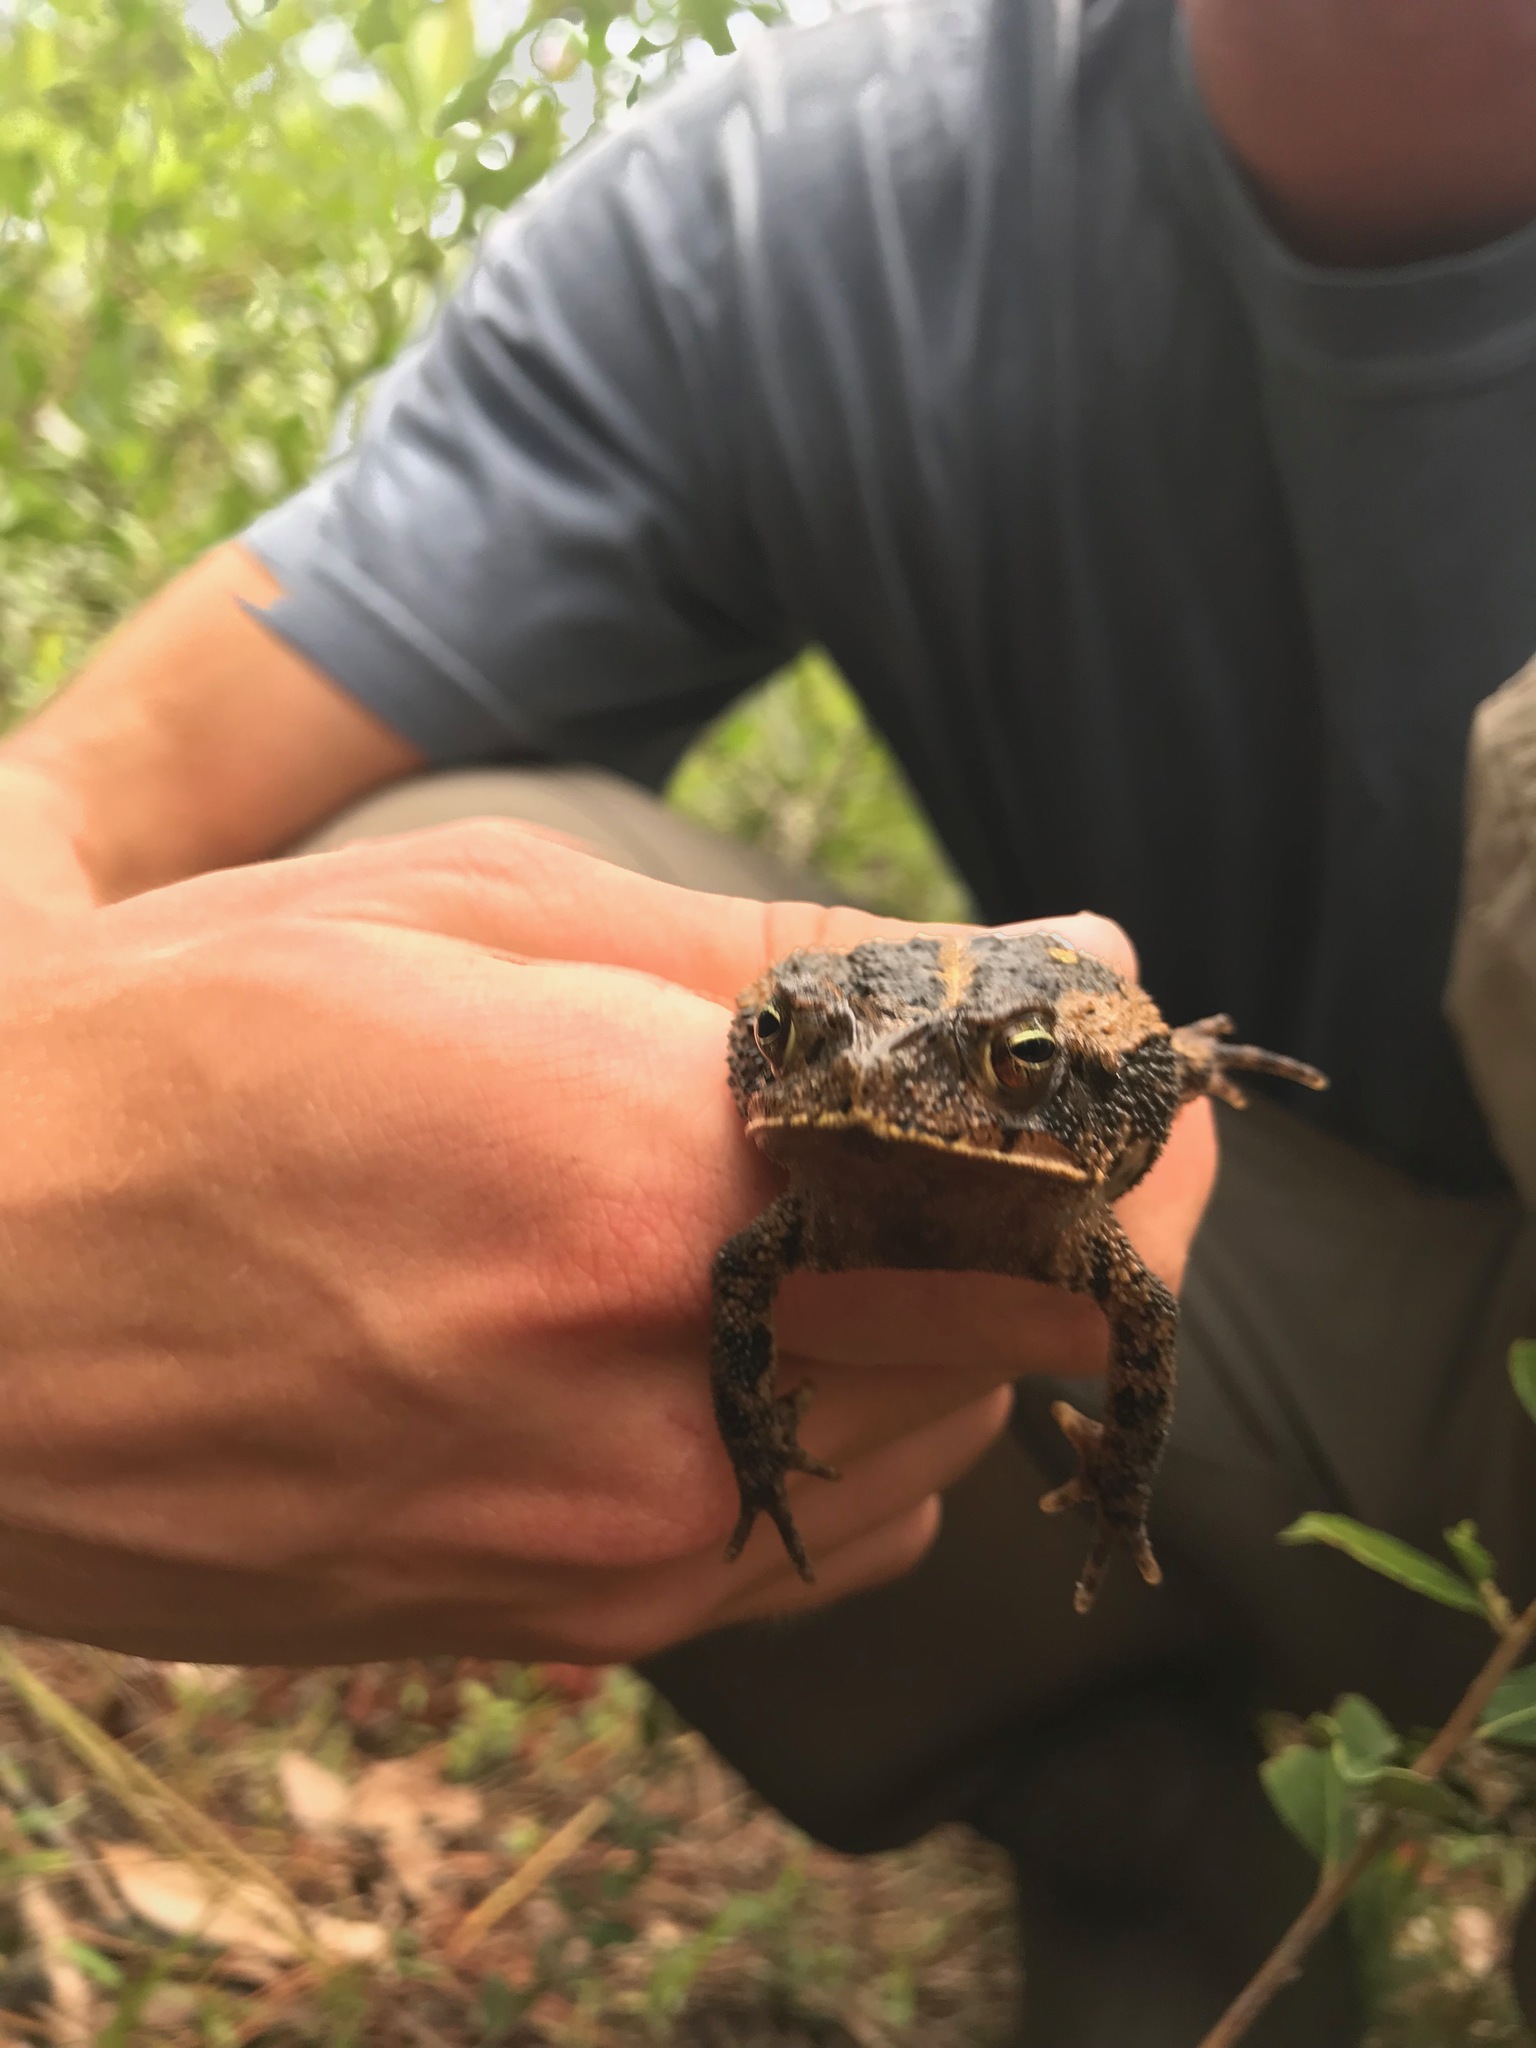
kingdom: Animalia
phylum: Chordata
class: Amphibia
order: Anura
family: Bufonidae
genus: Incilius
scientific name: Incilius nebulifer
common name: Gulf coast toad
